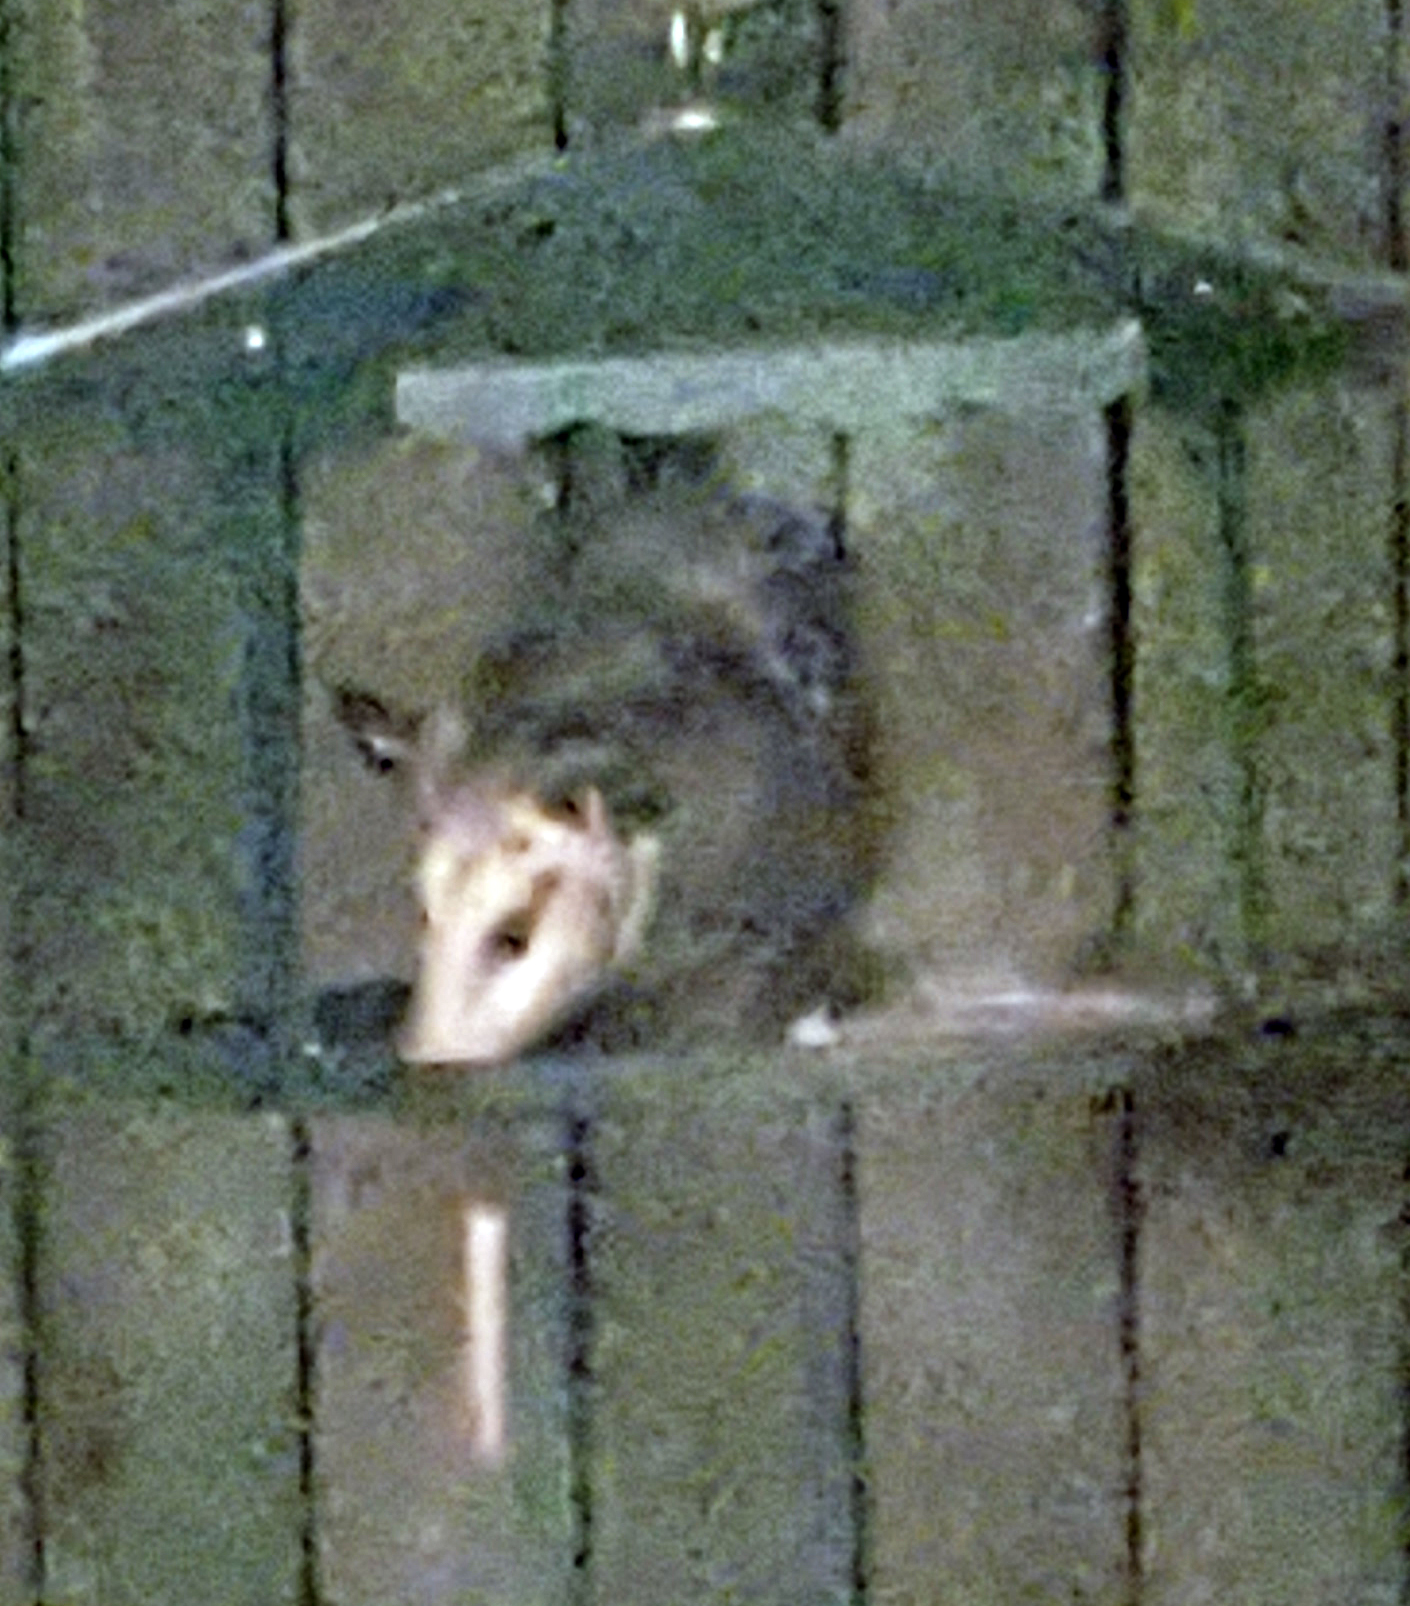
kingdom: Animalia
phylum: Chordata
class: Mammalia
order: Didelphimorphia
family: Didelphidae
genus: Didelphis
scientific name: Didelphis virginiana
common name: Virginia opossum
